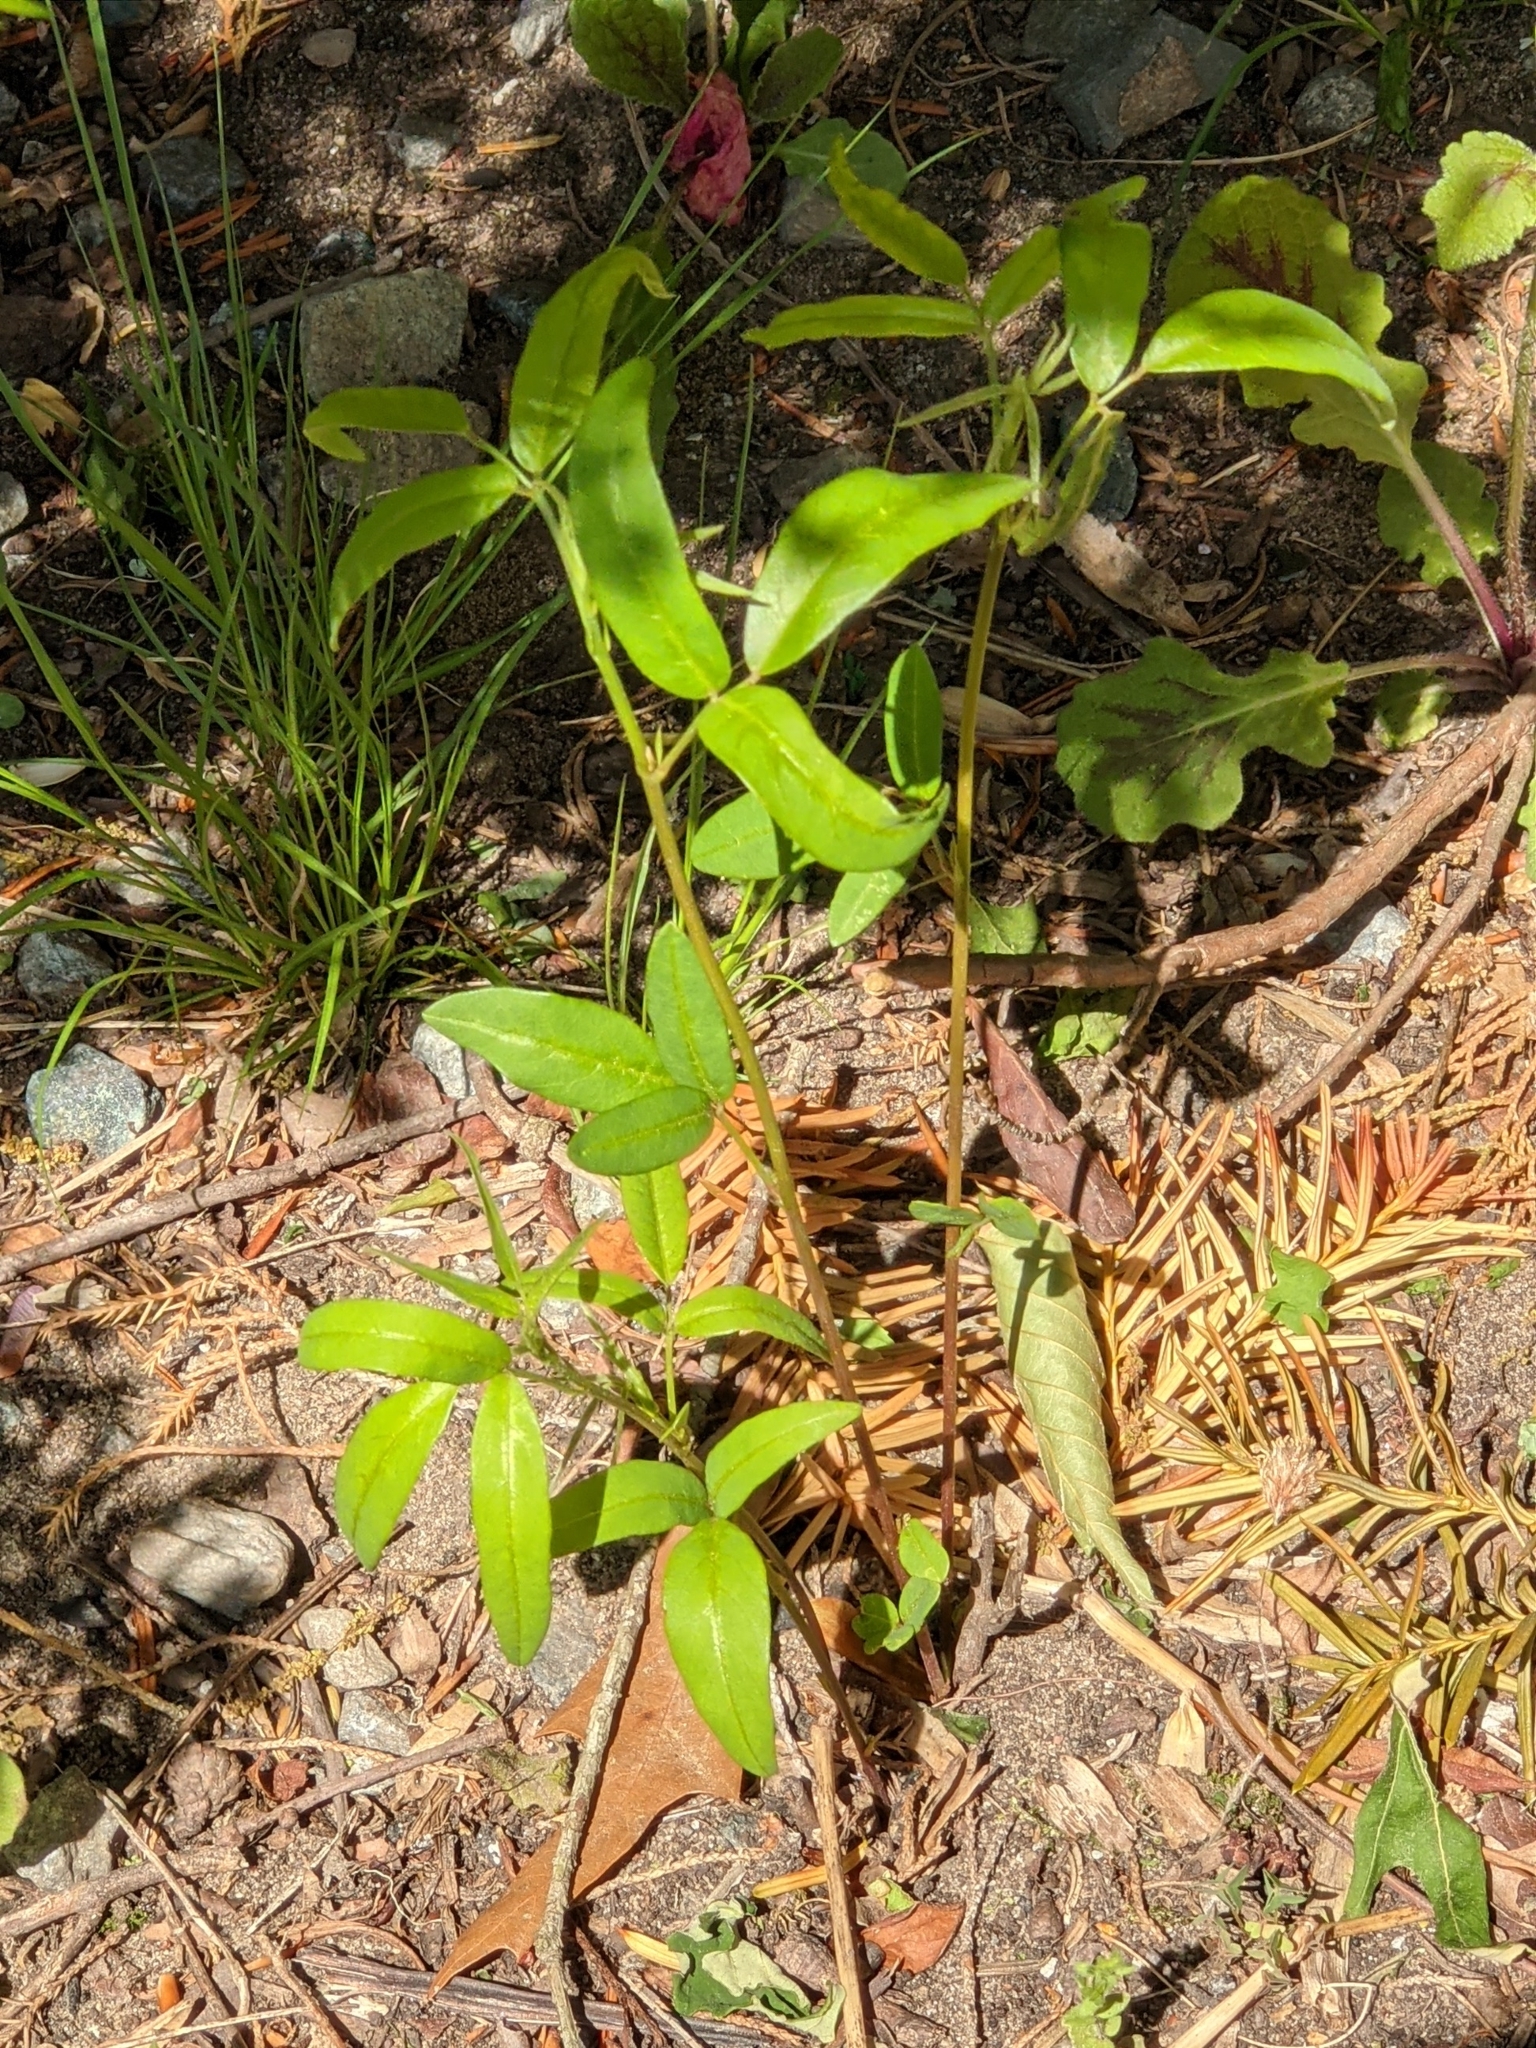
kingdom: Plantae
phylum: Tracheophyta
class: Magnoliopsida
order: Fabales
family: Fabaceae
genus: Desmodium
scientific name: Desmodium paniculatum
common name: Panicled tick-clover
